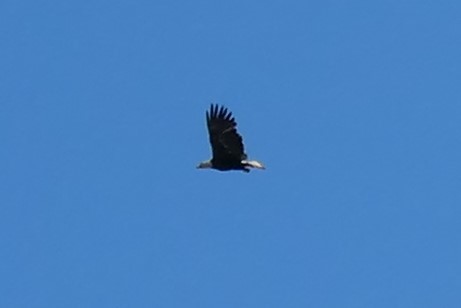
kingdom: Animalia
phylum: Chordata
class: Aves
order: Accipitriformes
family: Accipitridae
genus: Haliaeetus
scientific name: Haliaeetus leucocephalus
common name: Bald eagle
